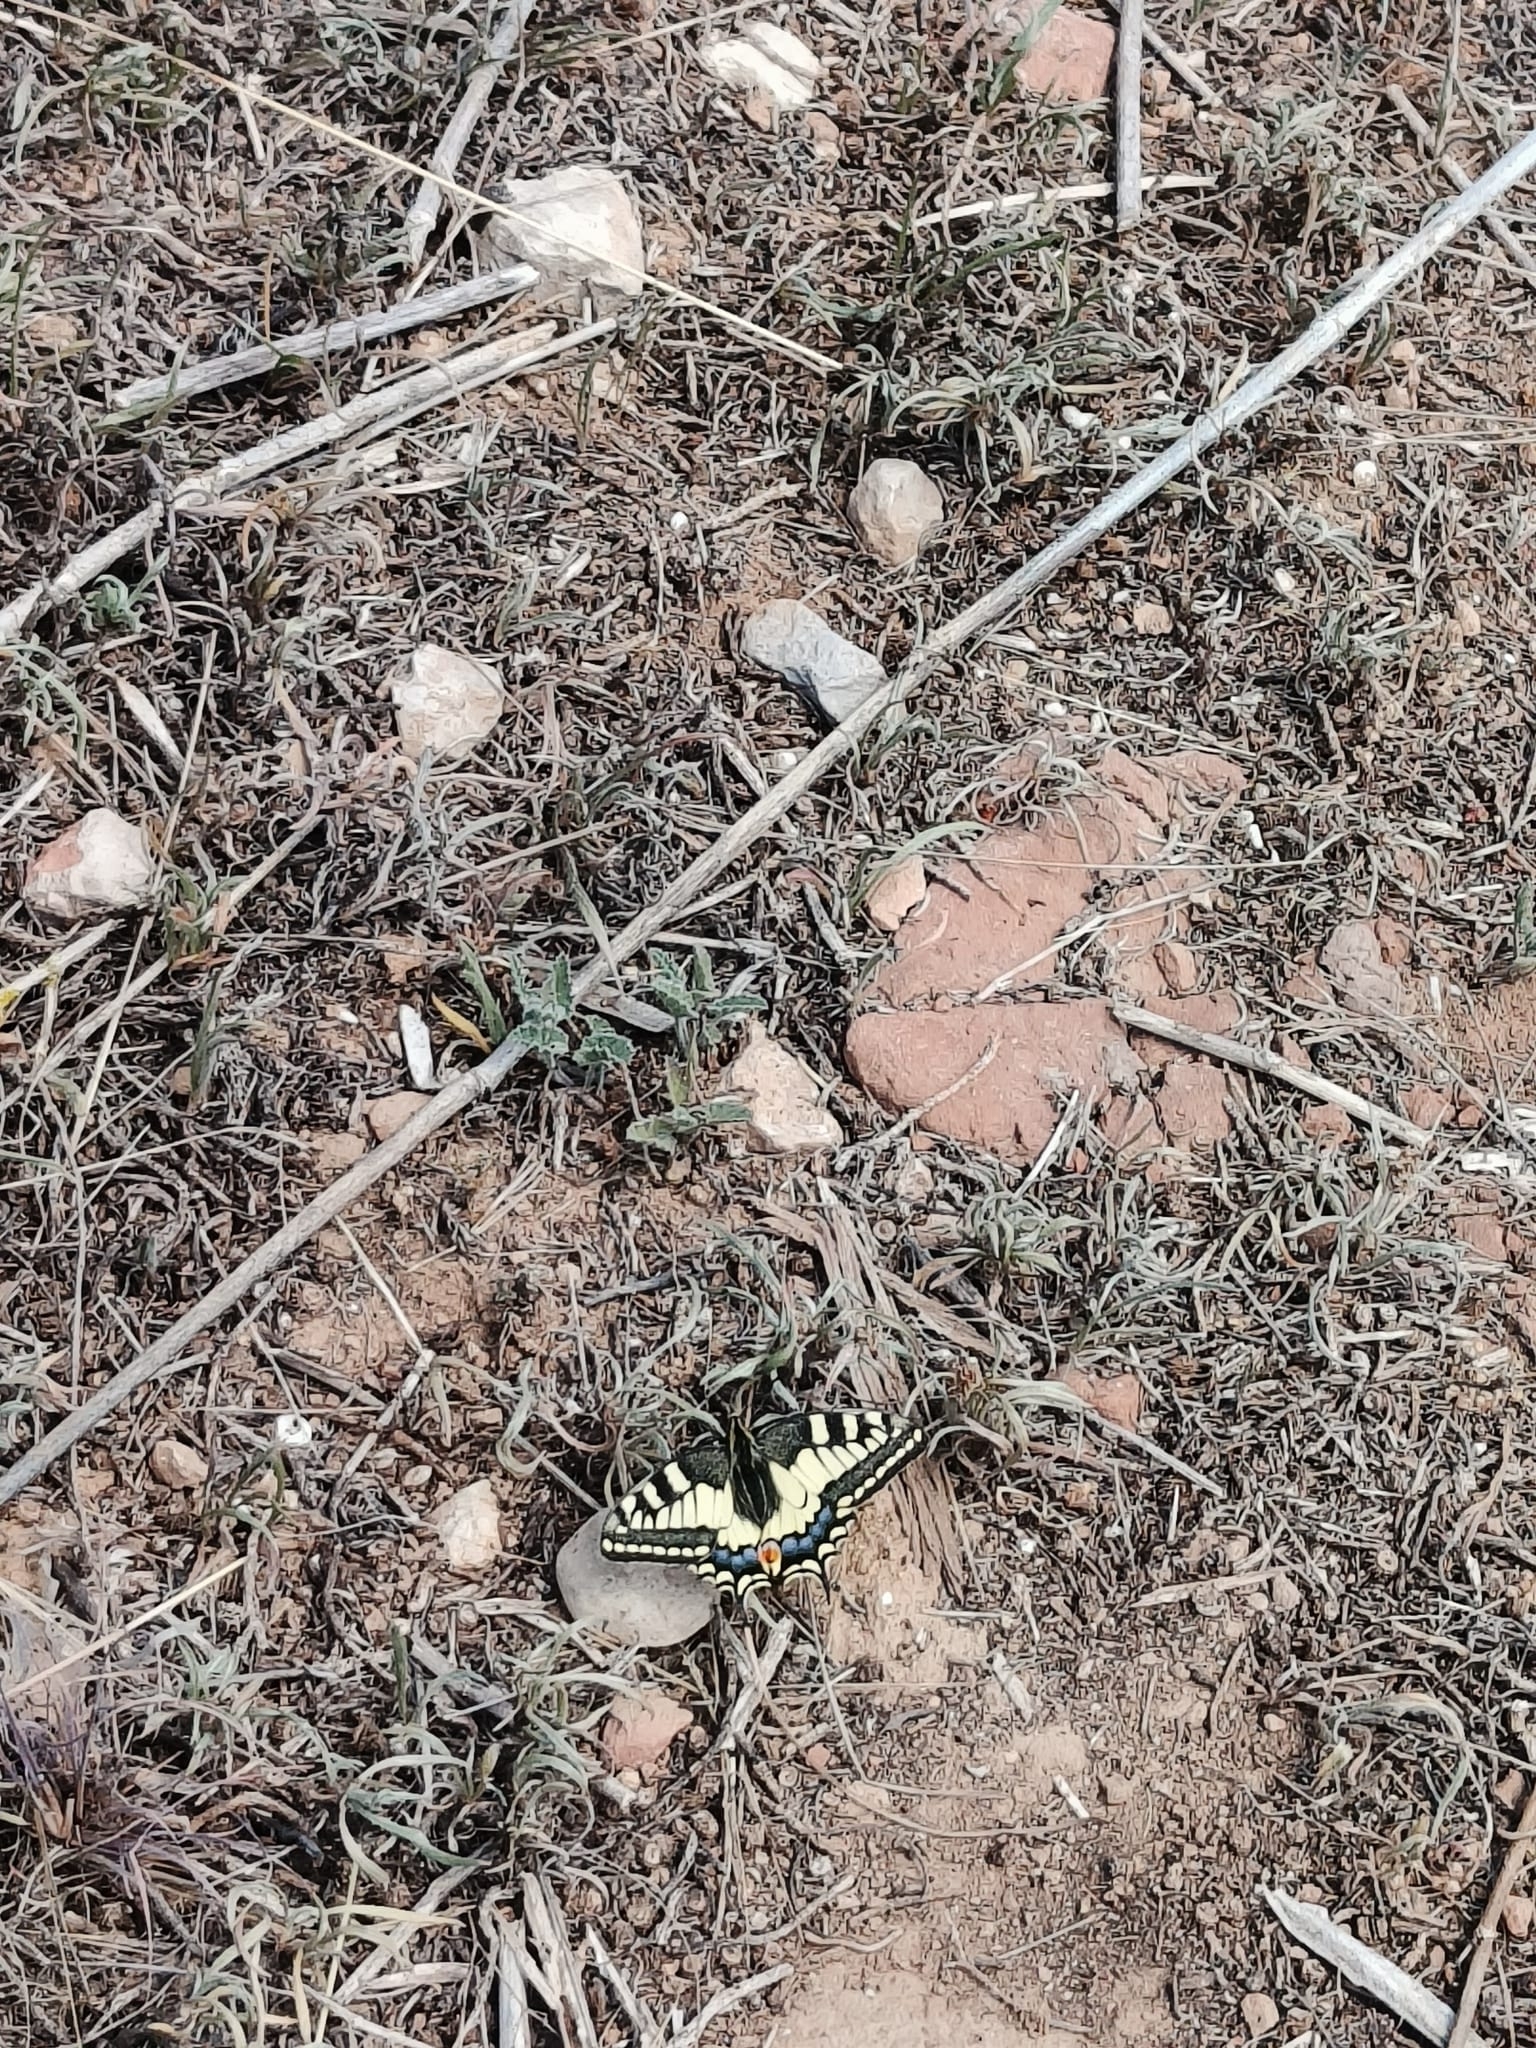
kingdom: Animalia
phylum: Arthropoda
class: Insecta
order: Lepidoptera
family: Papilionidae
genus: Papilio
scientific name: Papilio machaon
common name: Swallowtail
